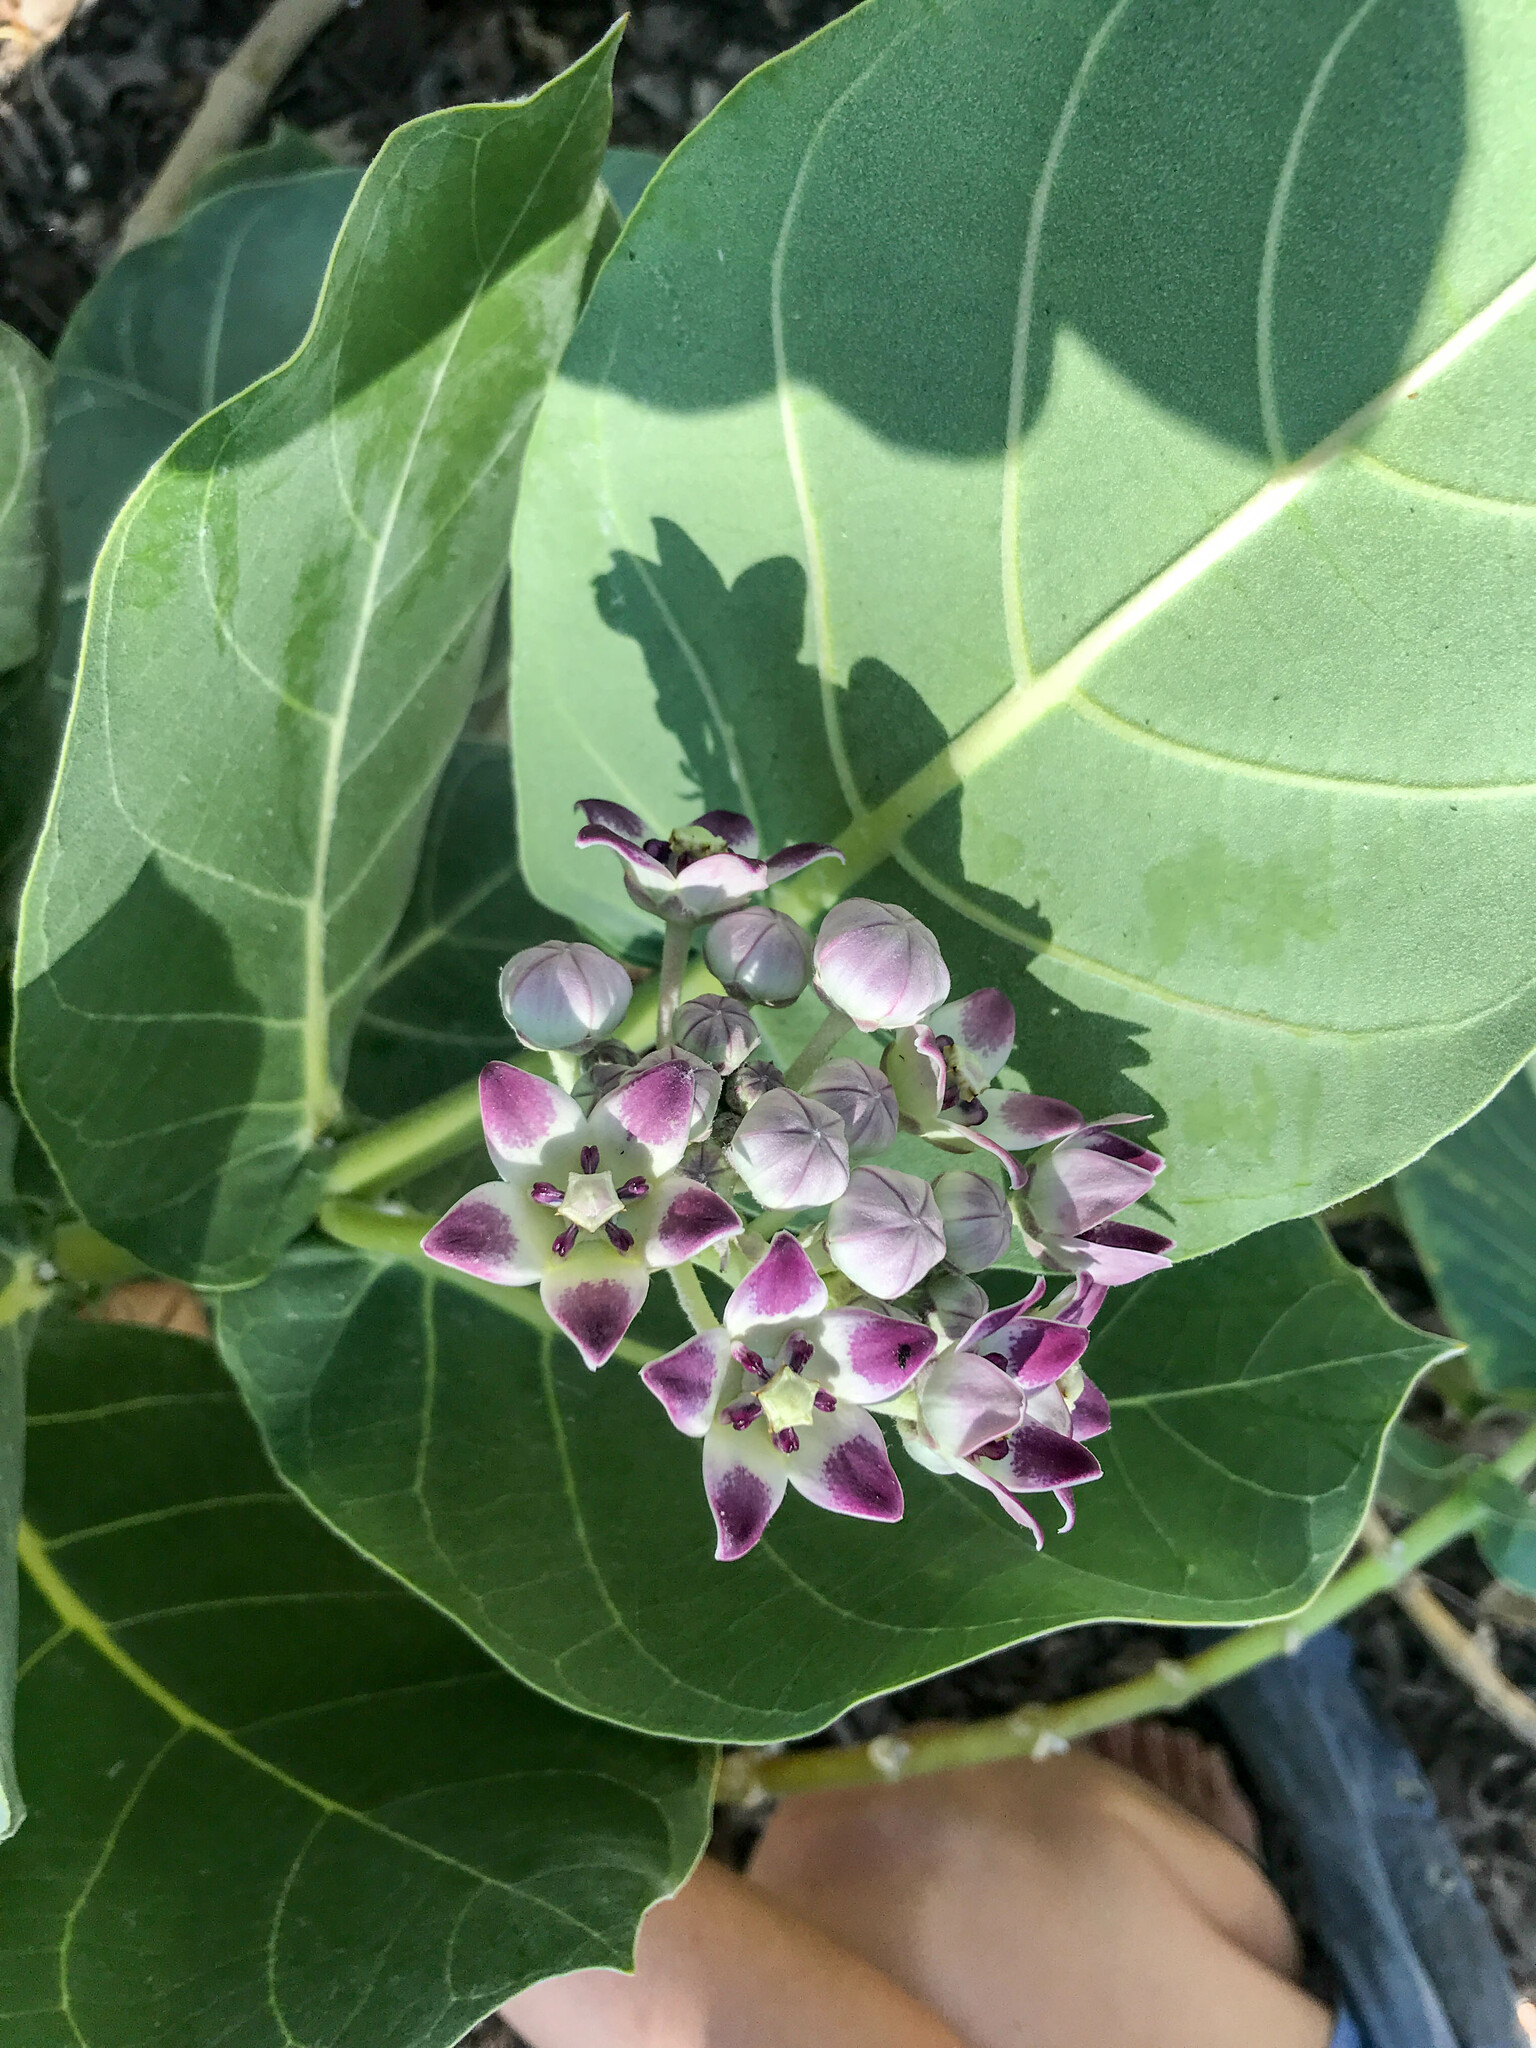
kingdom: Plantae
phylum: Tracheophyta
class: Magnoliopsida
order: Gentianales
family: Apocynaceae
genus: Calotropis
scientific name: Calotropis procera
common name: Roostertree
